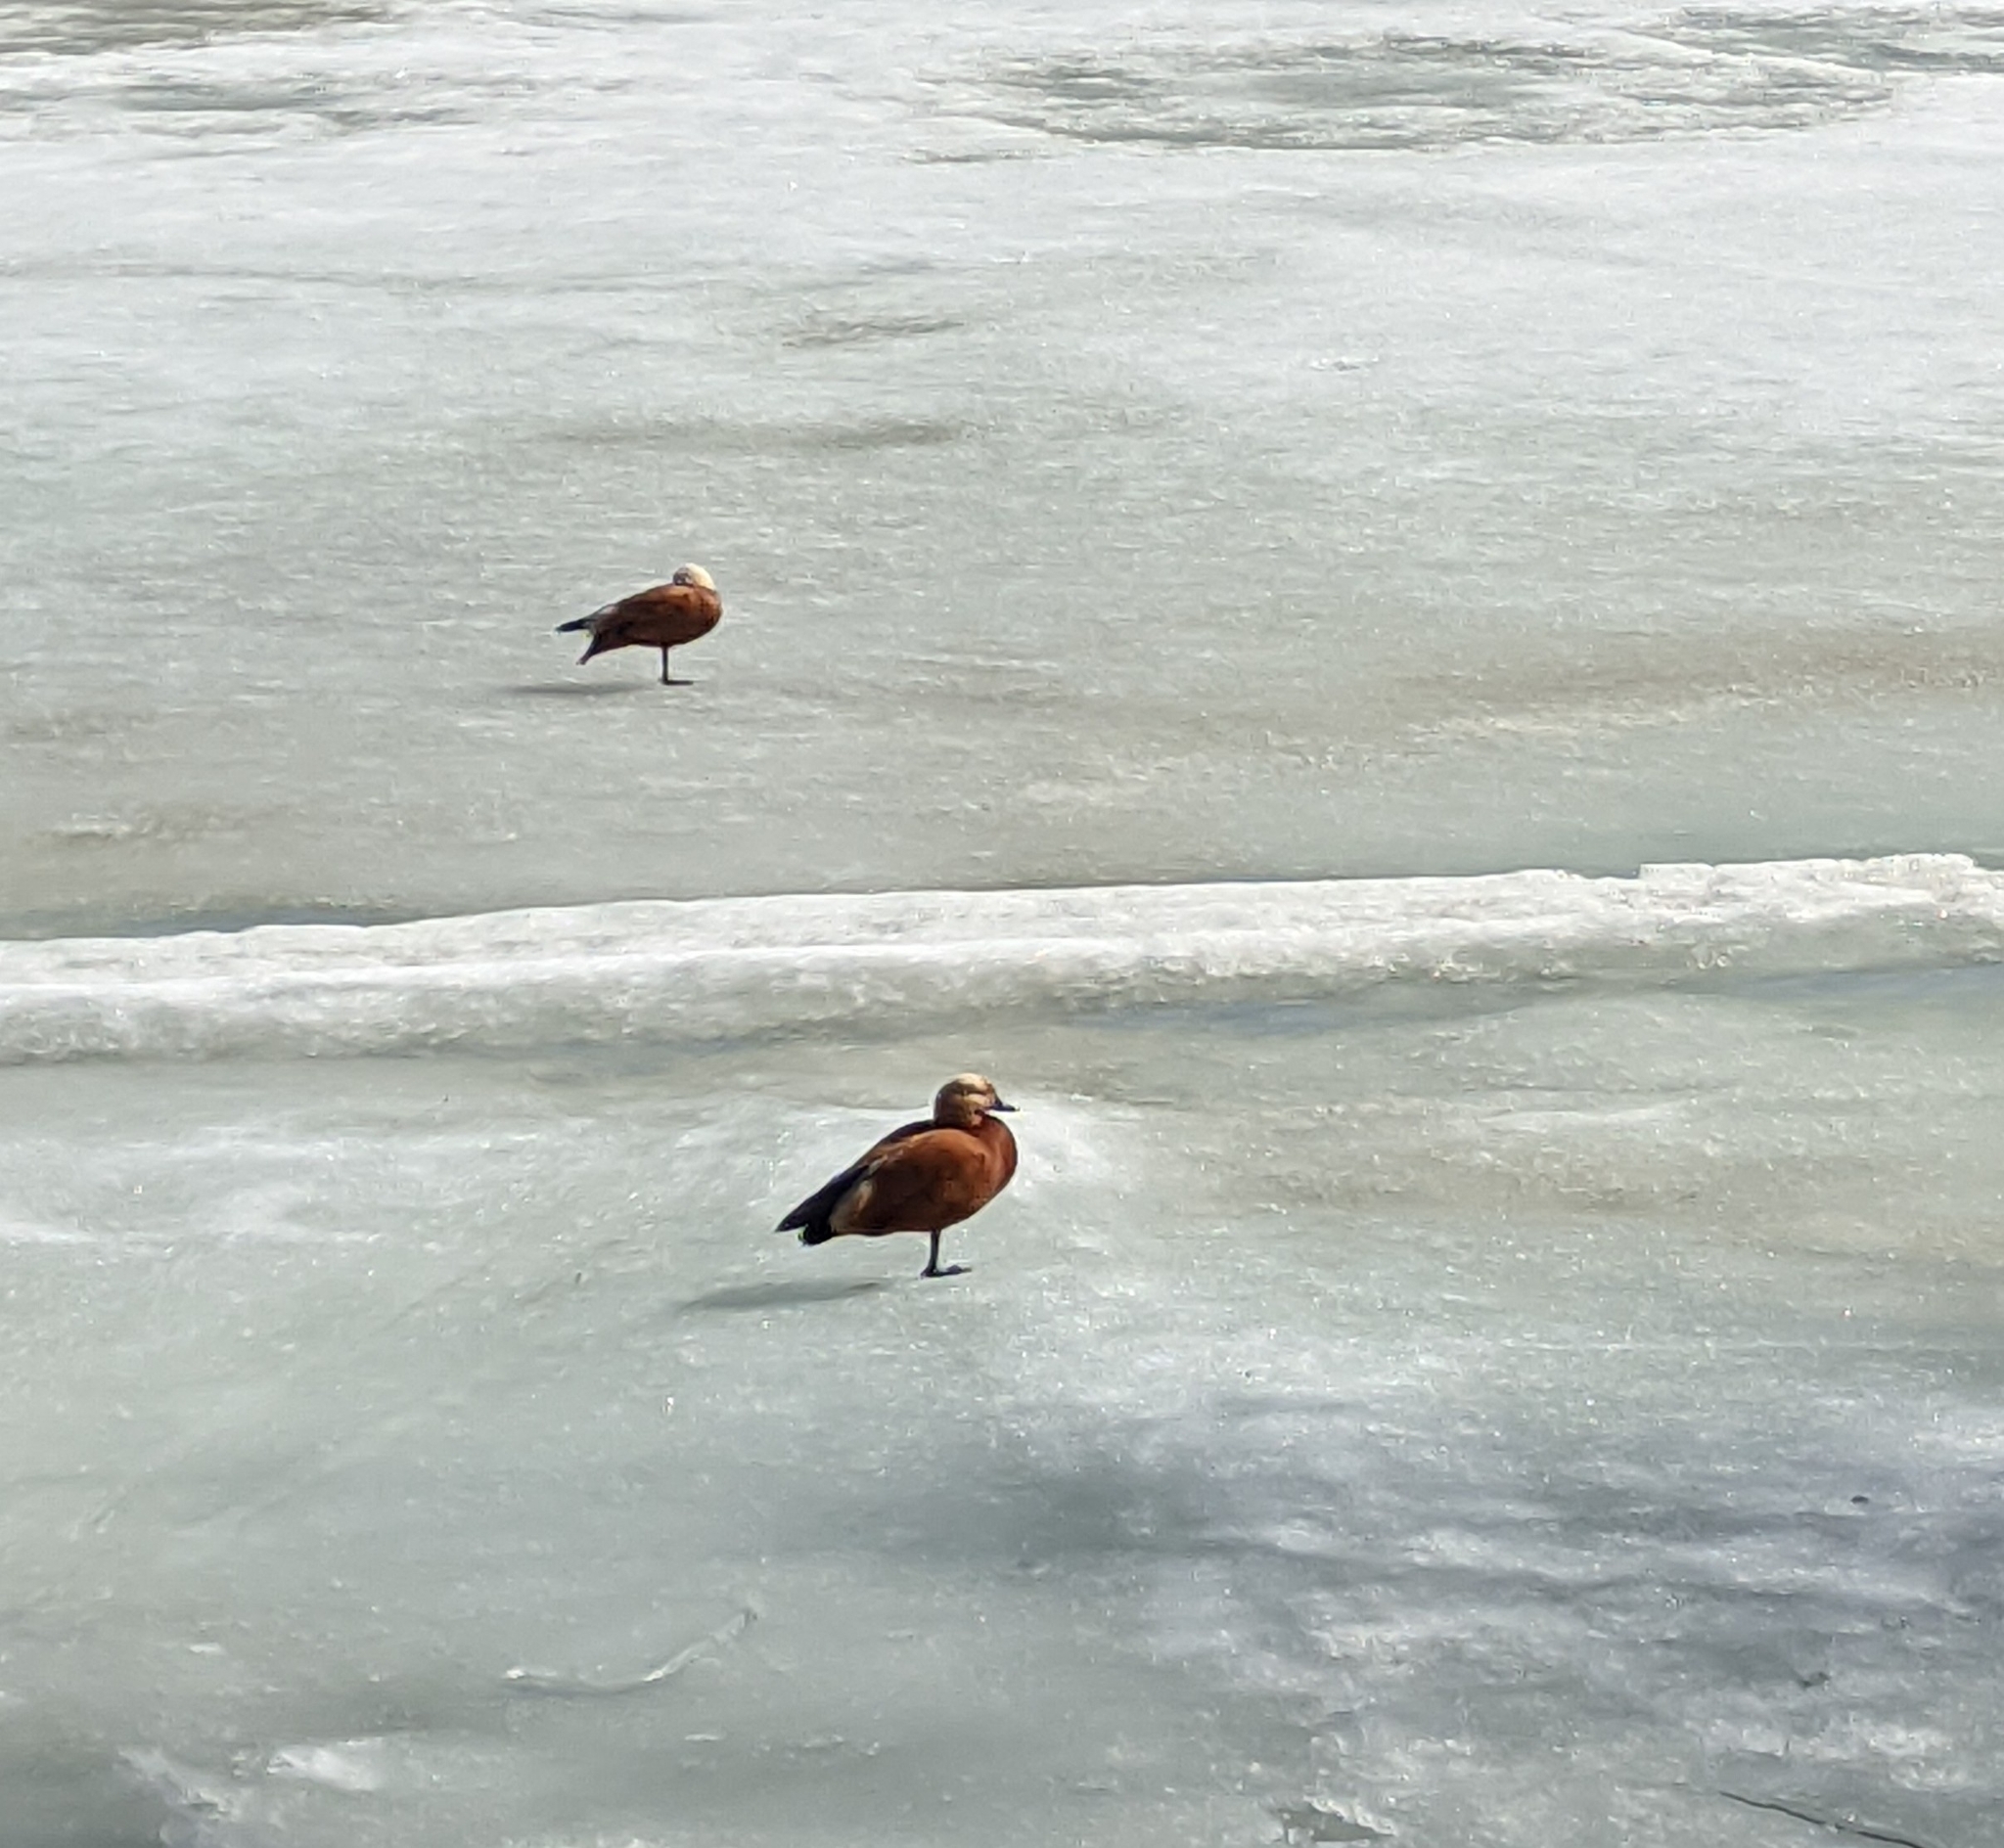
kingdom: Animalia
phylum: Chordata
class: Aves
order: Anseriformes
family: Anatidae
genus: Tadorna
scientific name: Tadorna ferruginea
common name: Ruddy shelduck
